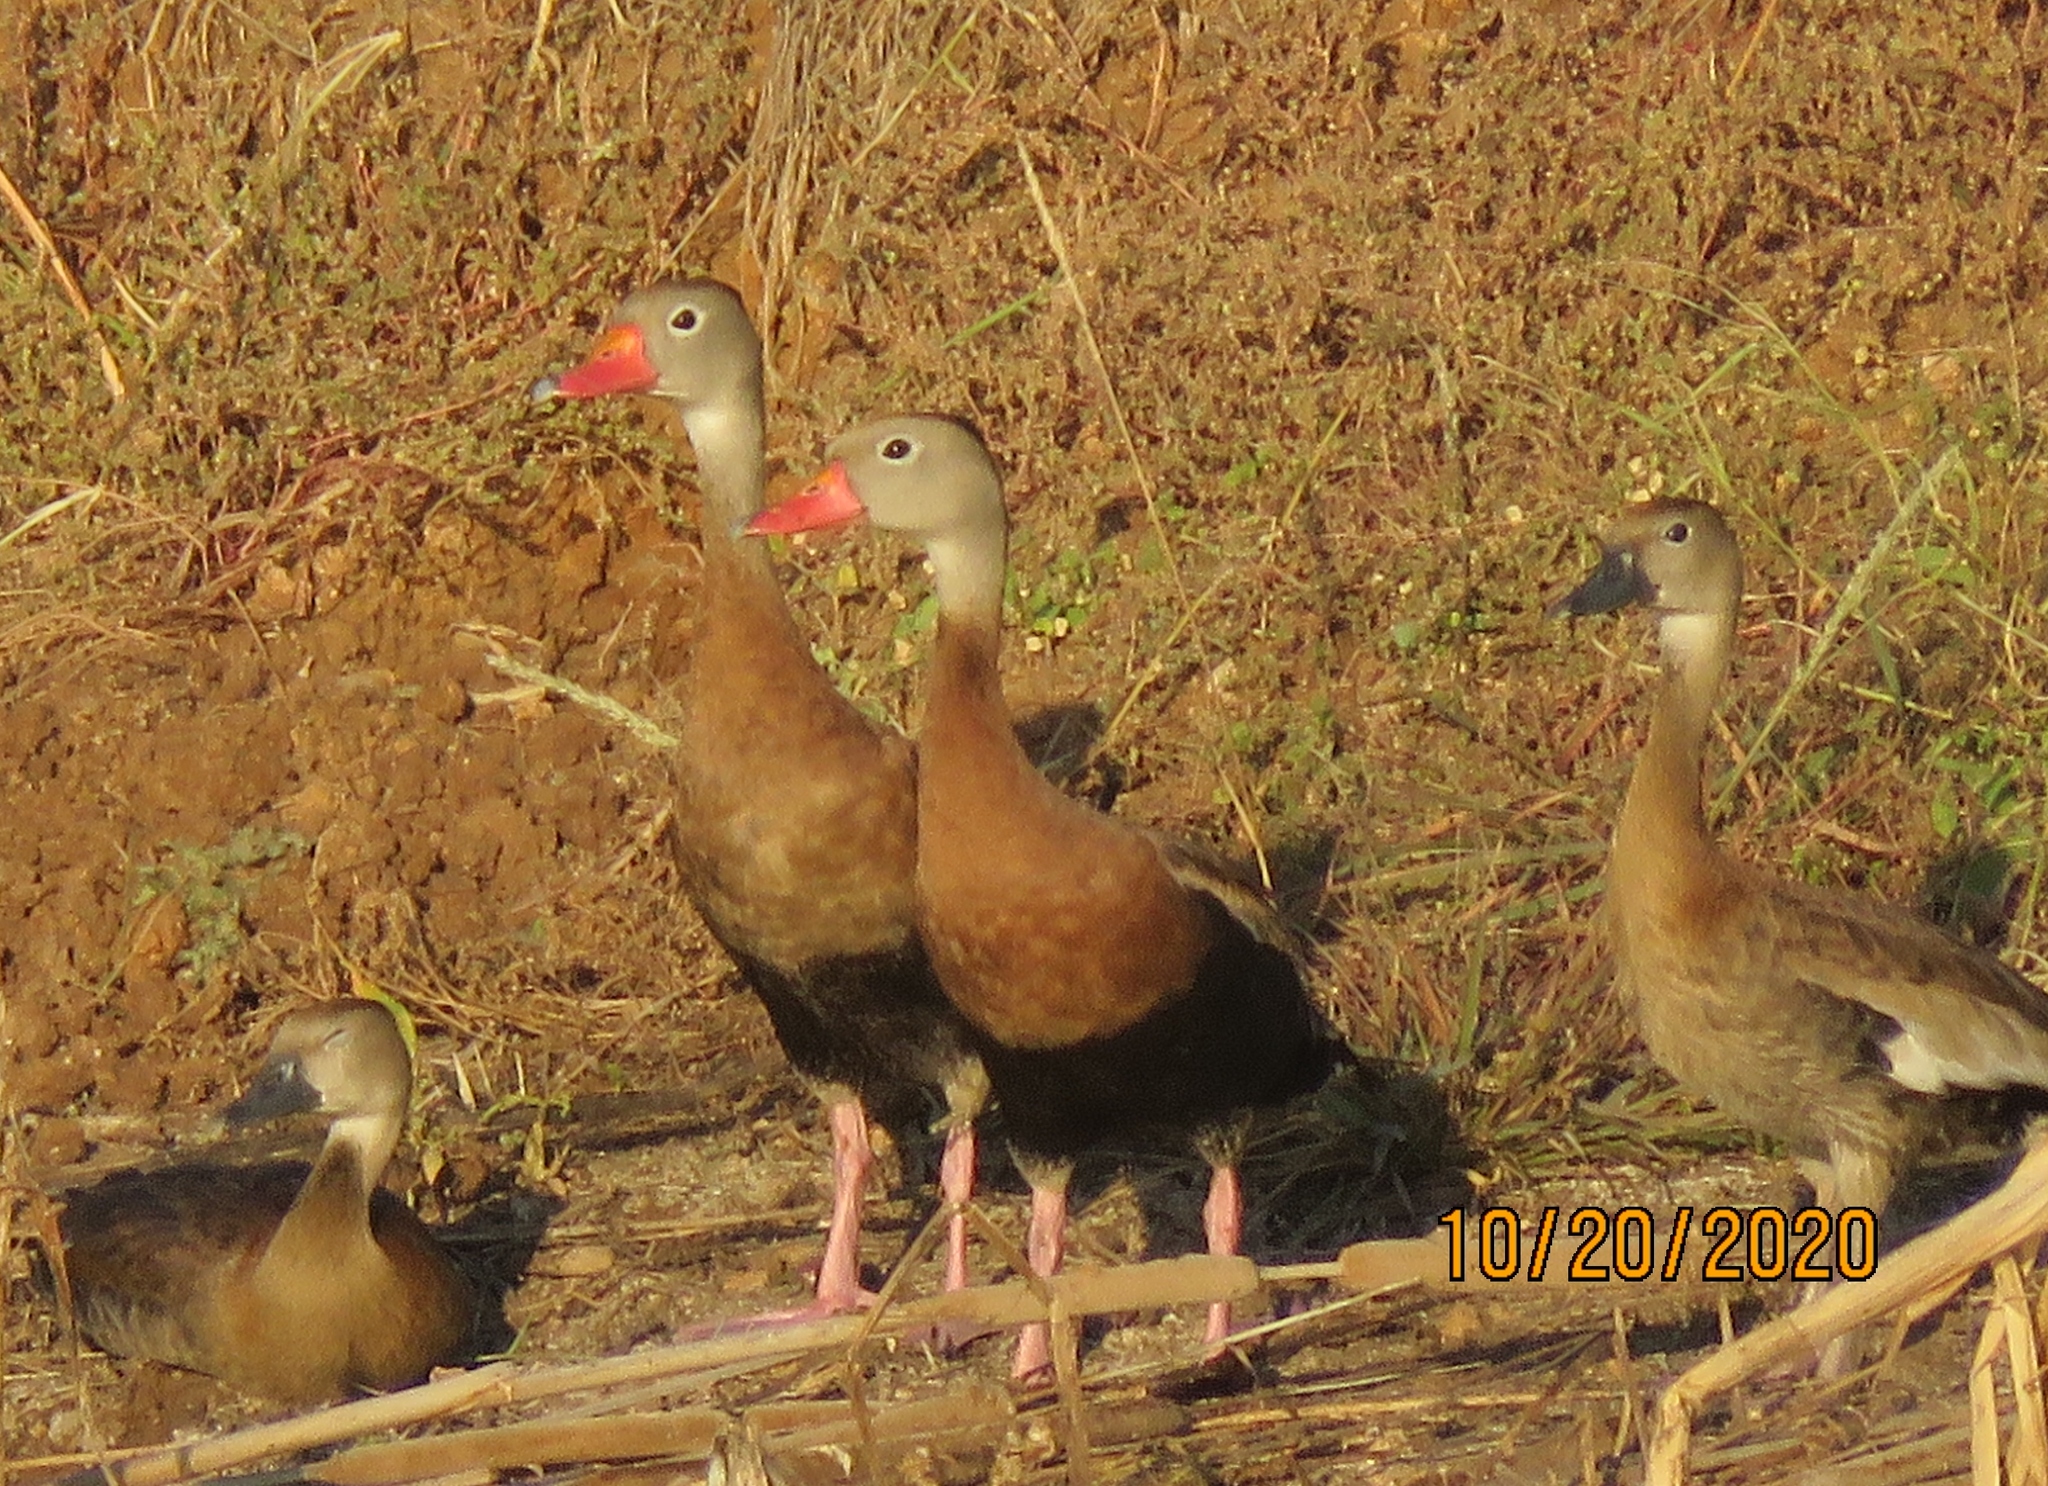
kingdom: Animalia
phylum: Chordata
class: Aves
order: Anseriformes
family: Anatidae
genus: Dendrocygna
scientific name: Dendrocygna autumnalis
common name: Black-bellied whistling duck
